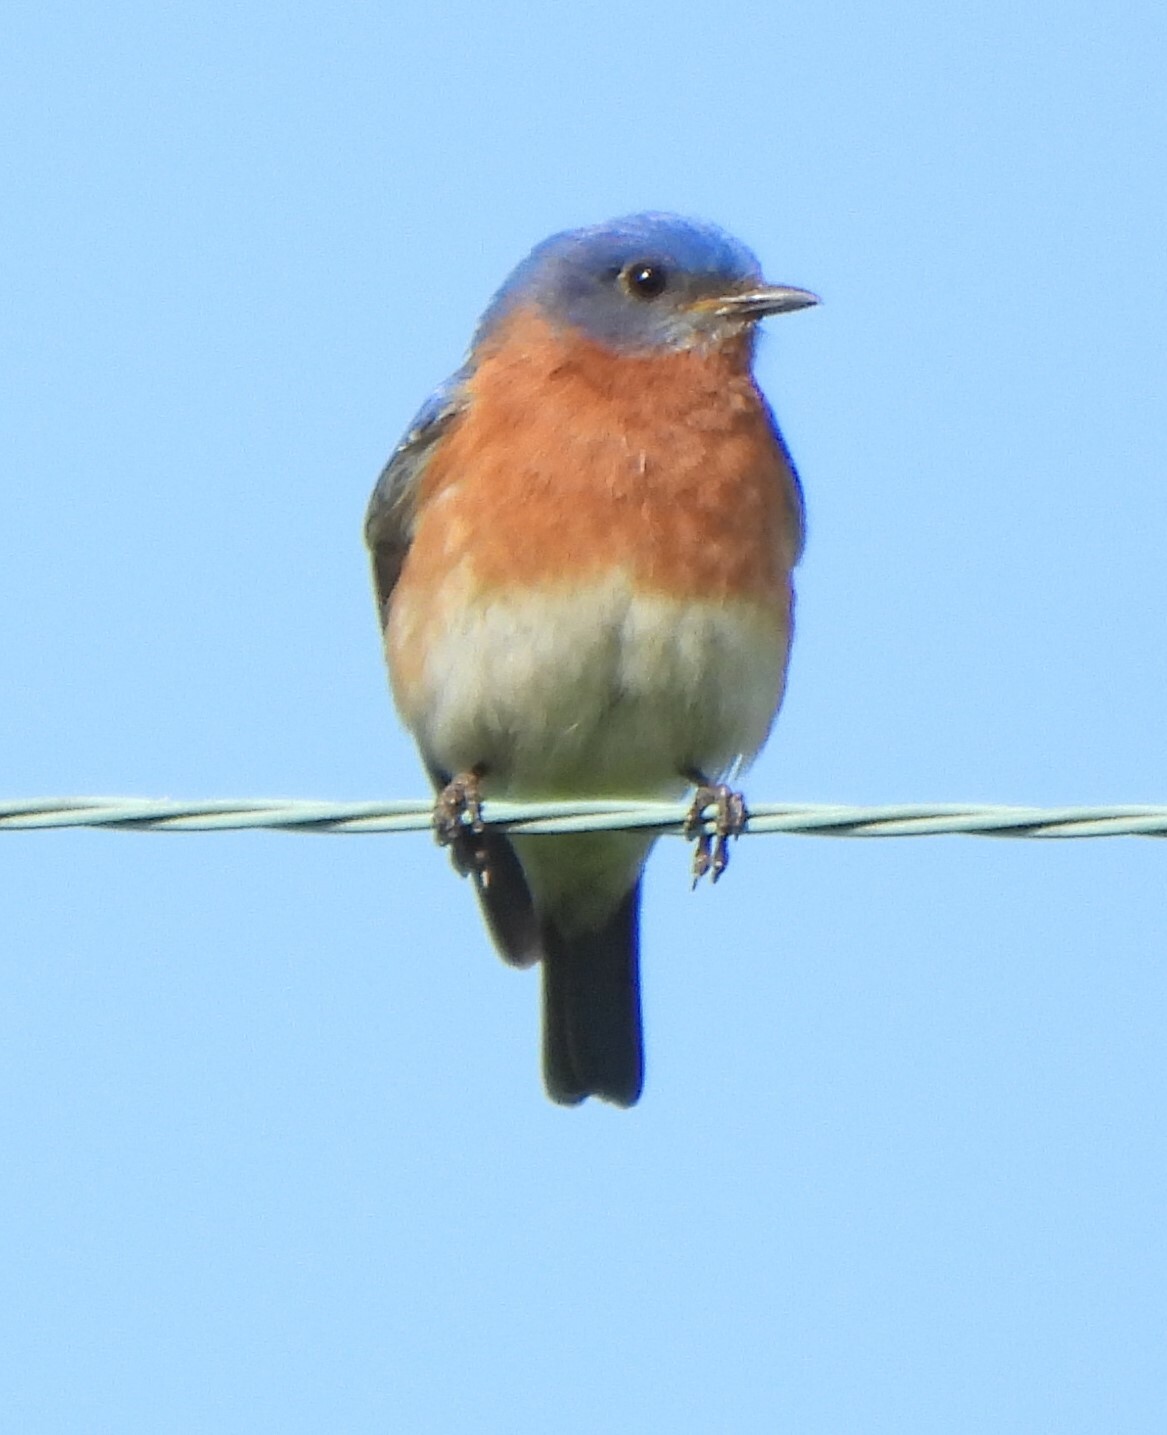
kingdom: Animalia
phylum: Chordata
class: Aves
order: Passeriformes
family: Turdidae
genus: Sialia
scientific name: Sialia sialis
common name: Eastern bluebird
